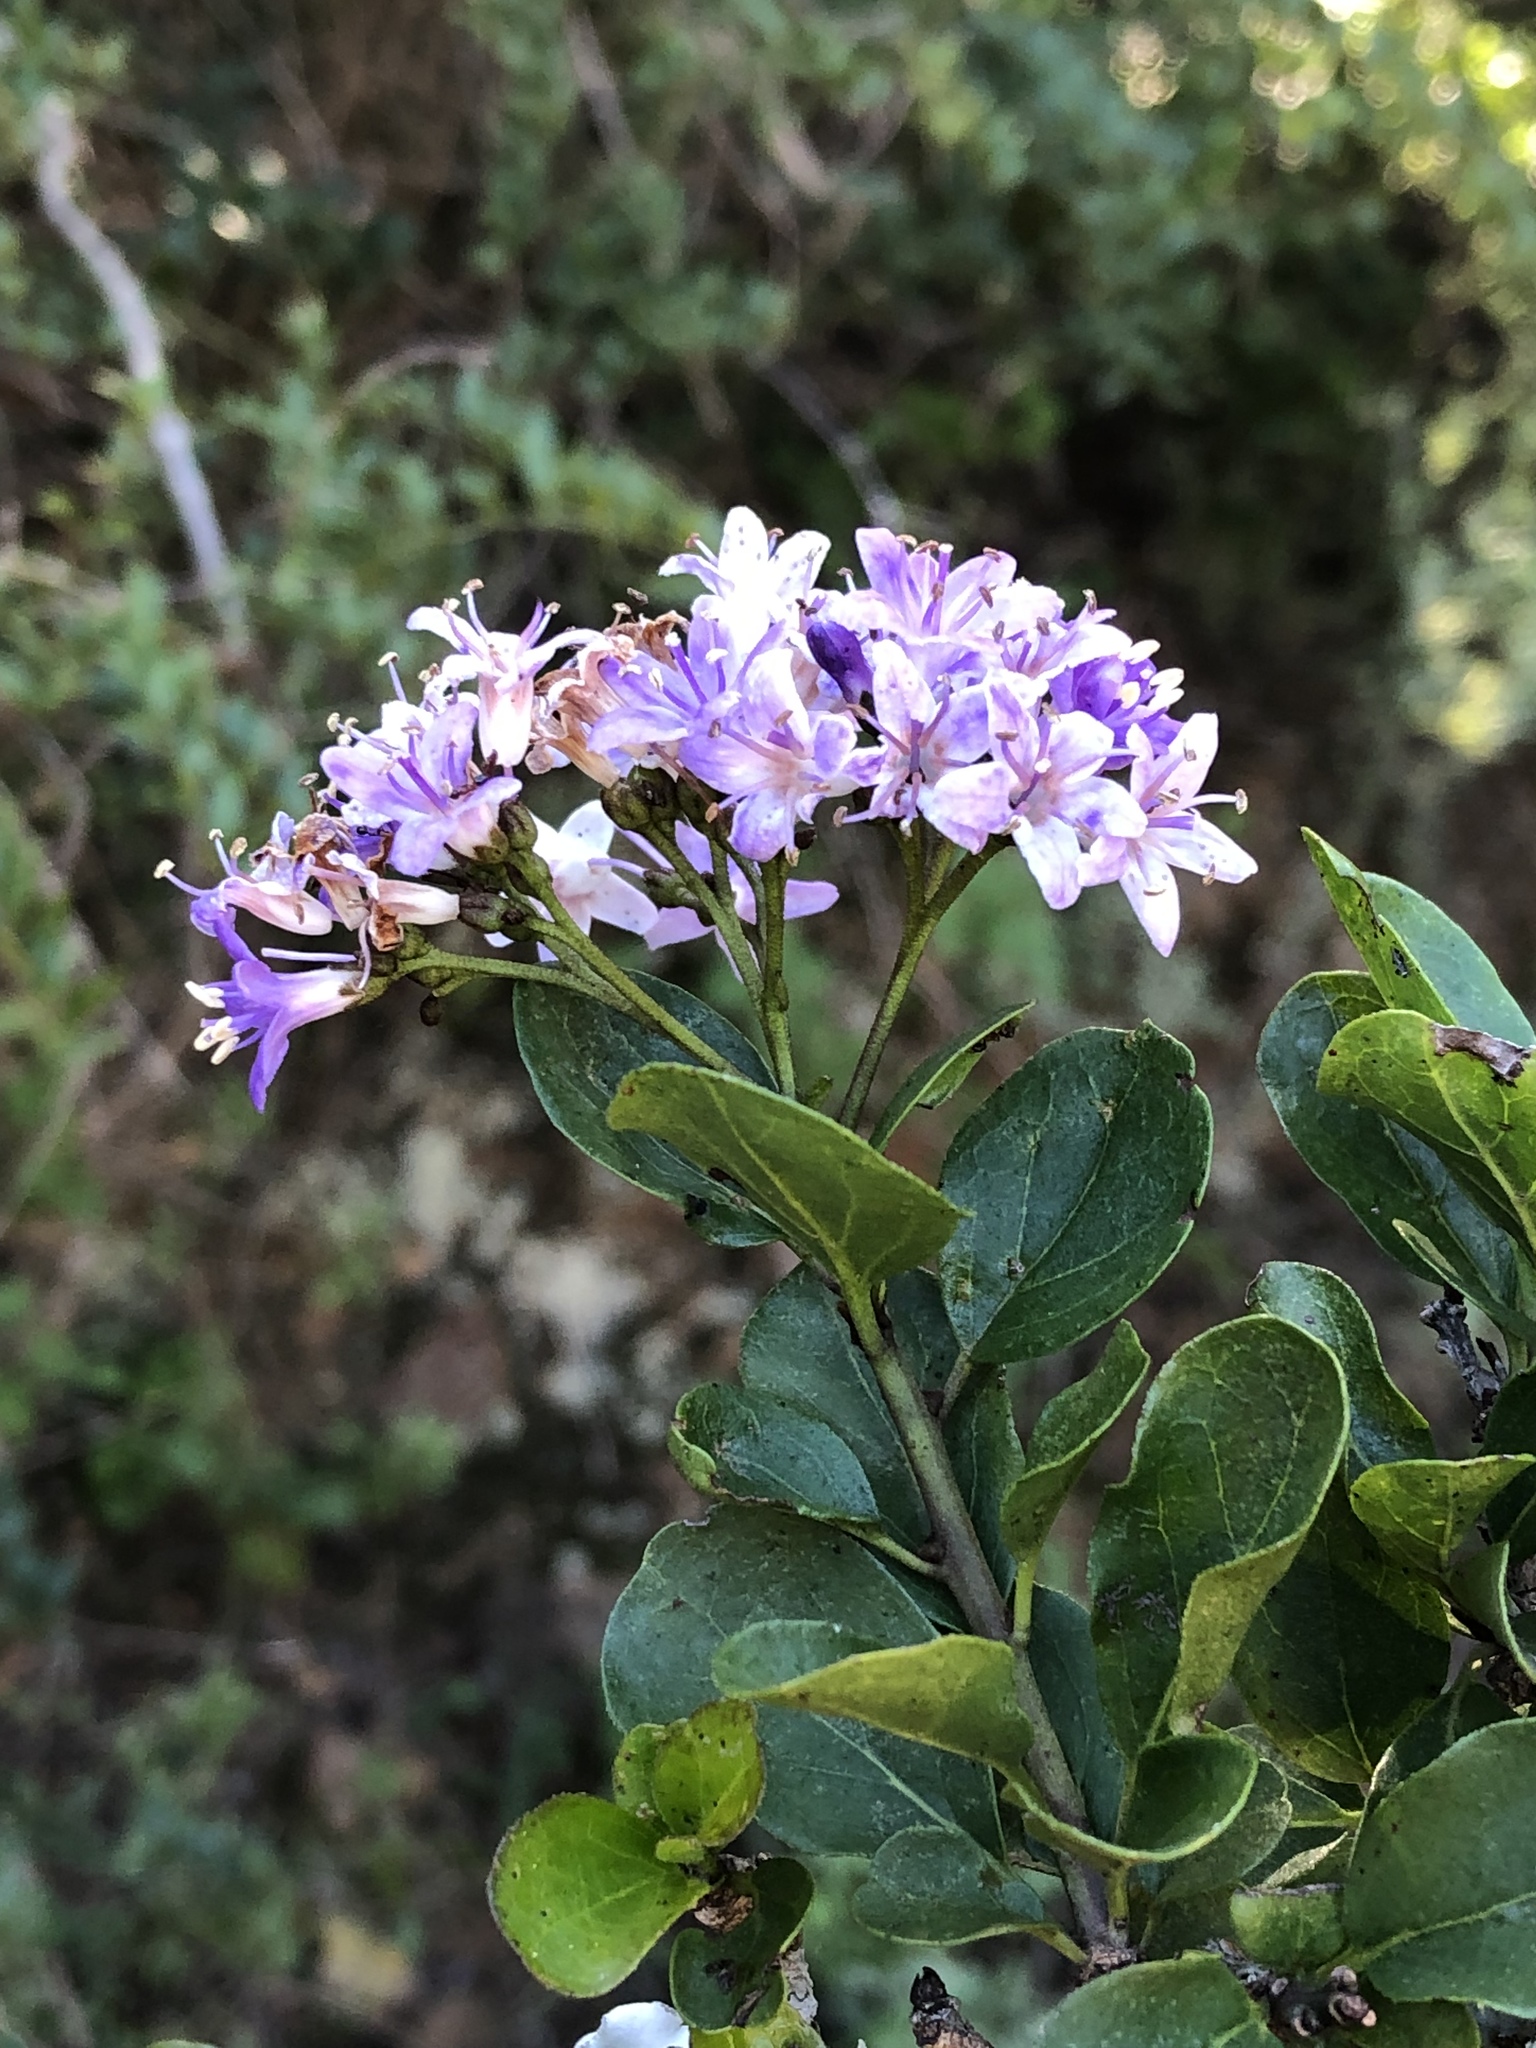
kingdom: Plantae
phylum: Tracheophyta
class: Magnoliopsida
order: Boraginales
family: Ehretiaceae
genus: Ehretia
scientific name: Ehretia rigida
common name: Cape lilac
